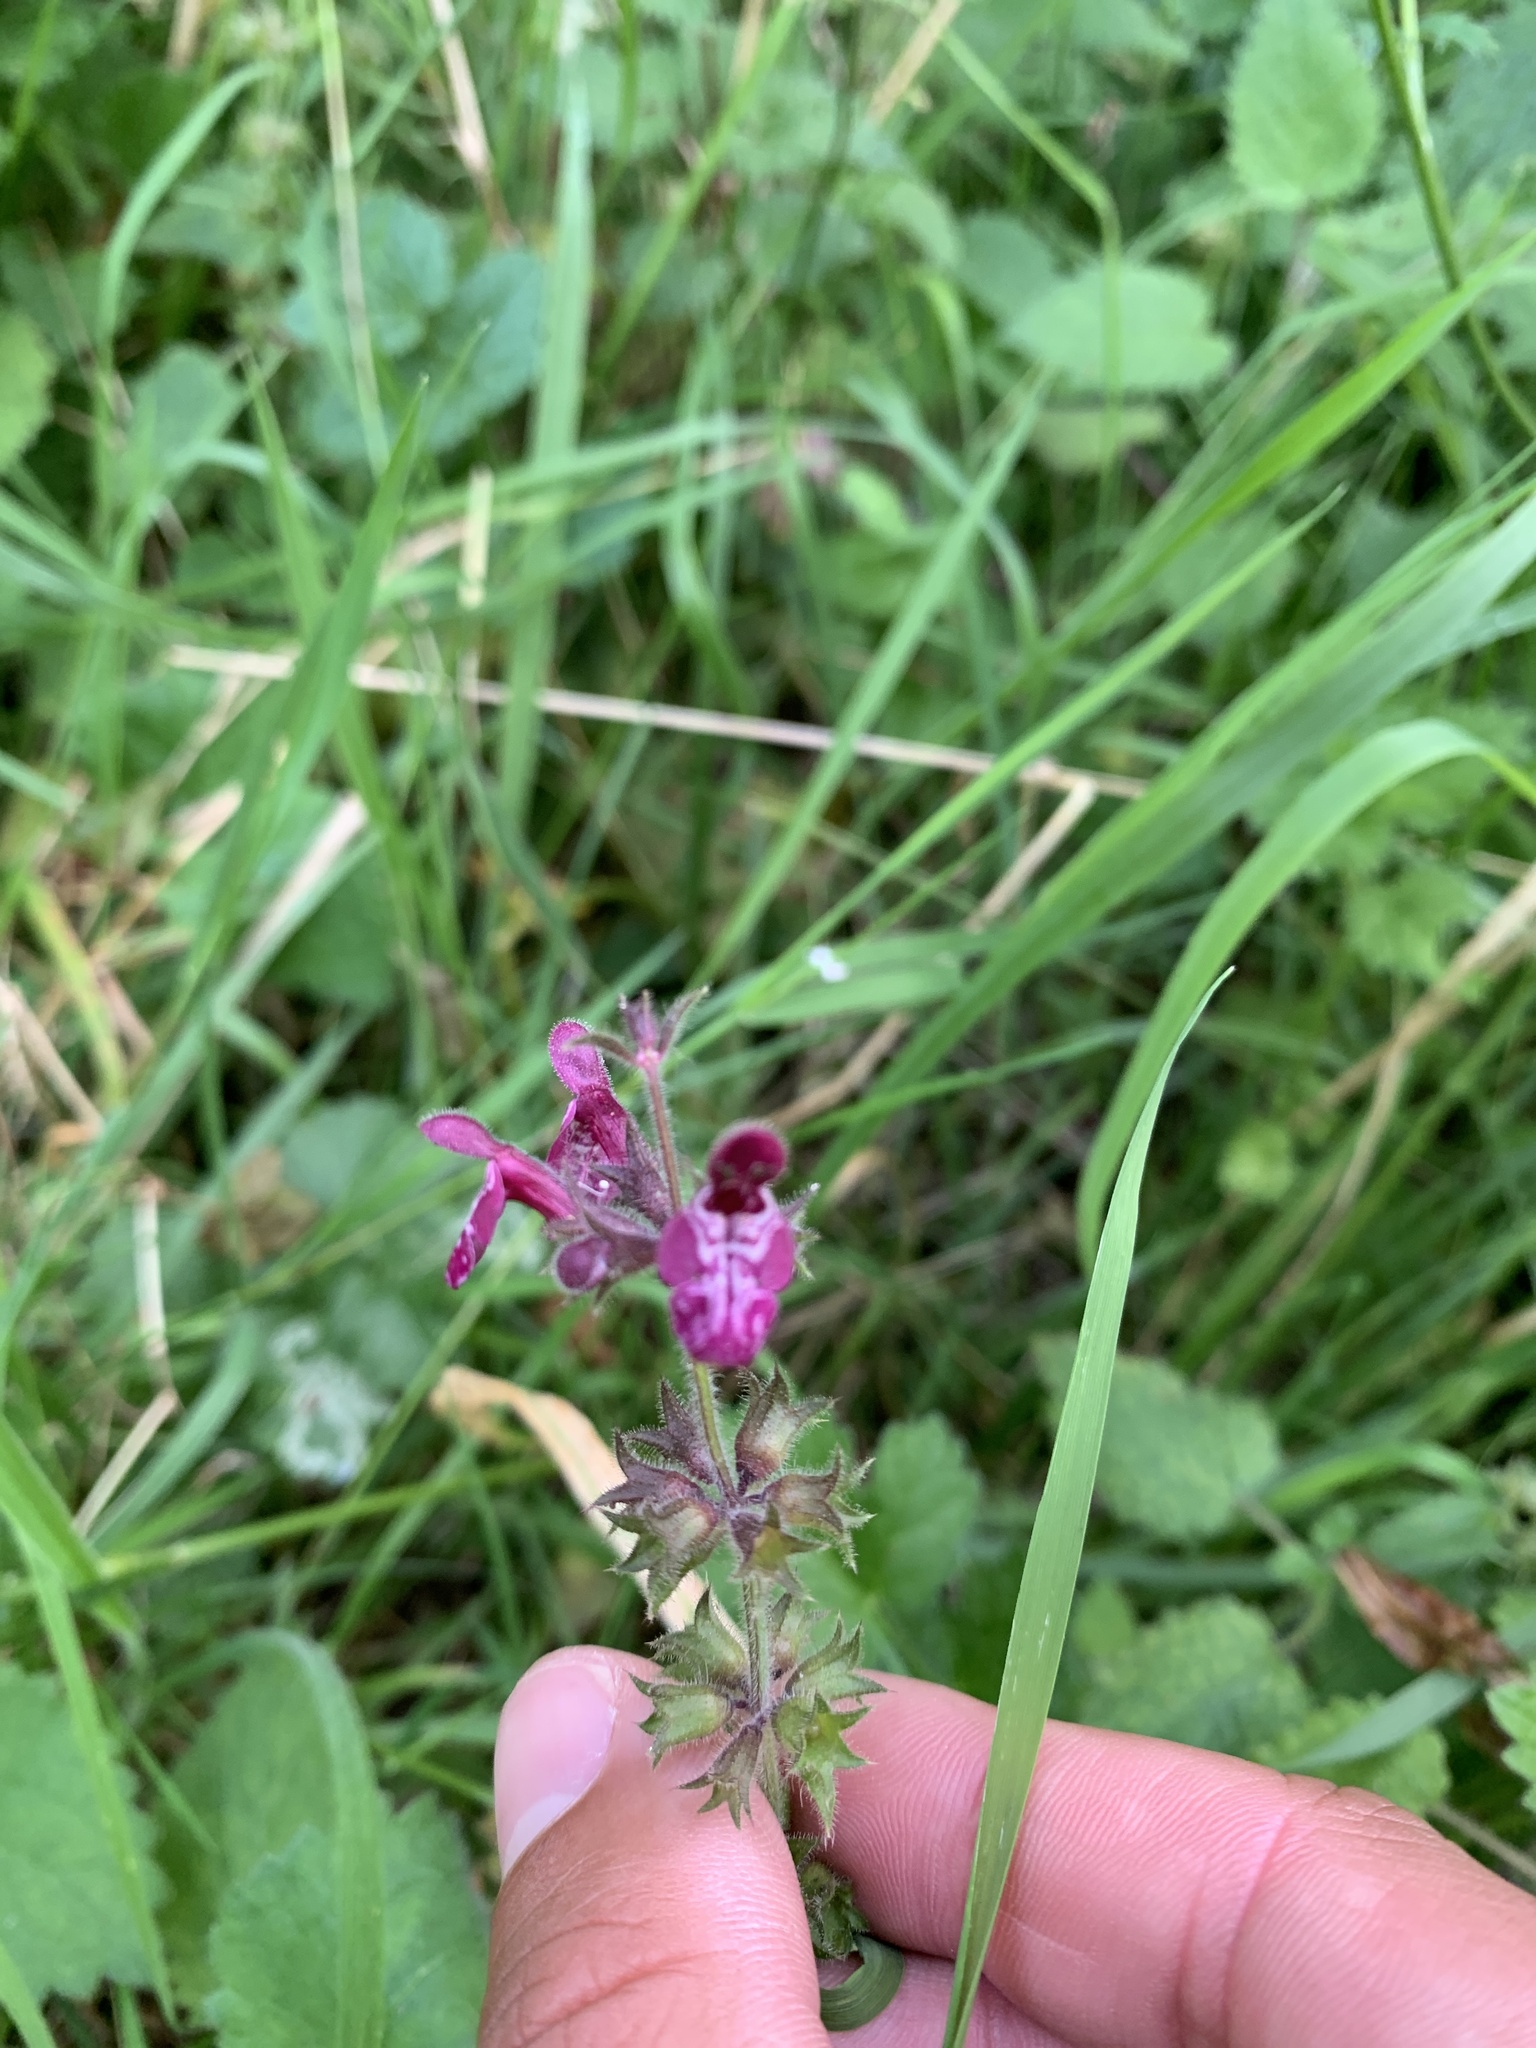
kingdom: Plantae
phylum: Tracheophyta
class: Magnoliopsida
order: Lamiales
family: Lamiaceae
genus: Stachys
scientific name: Stachys sylvatica
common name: Hedge woundwort
